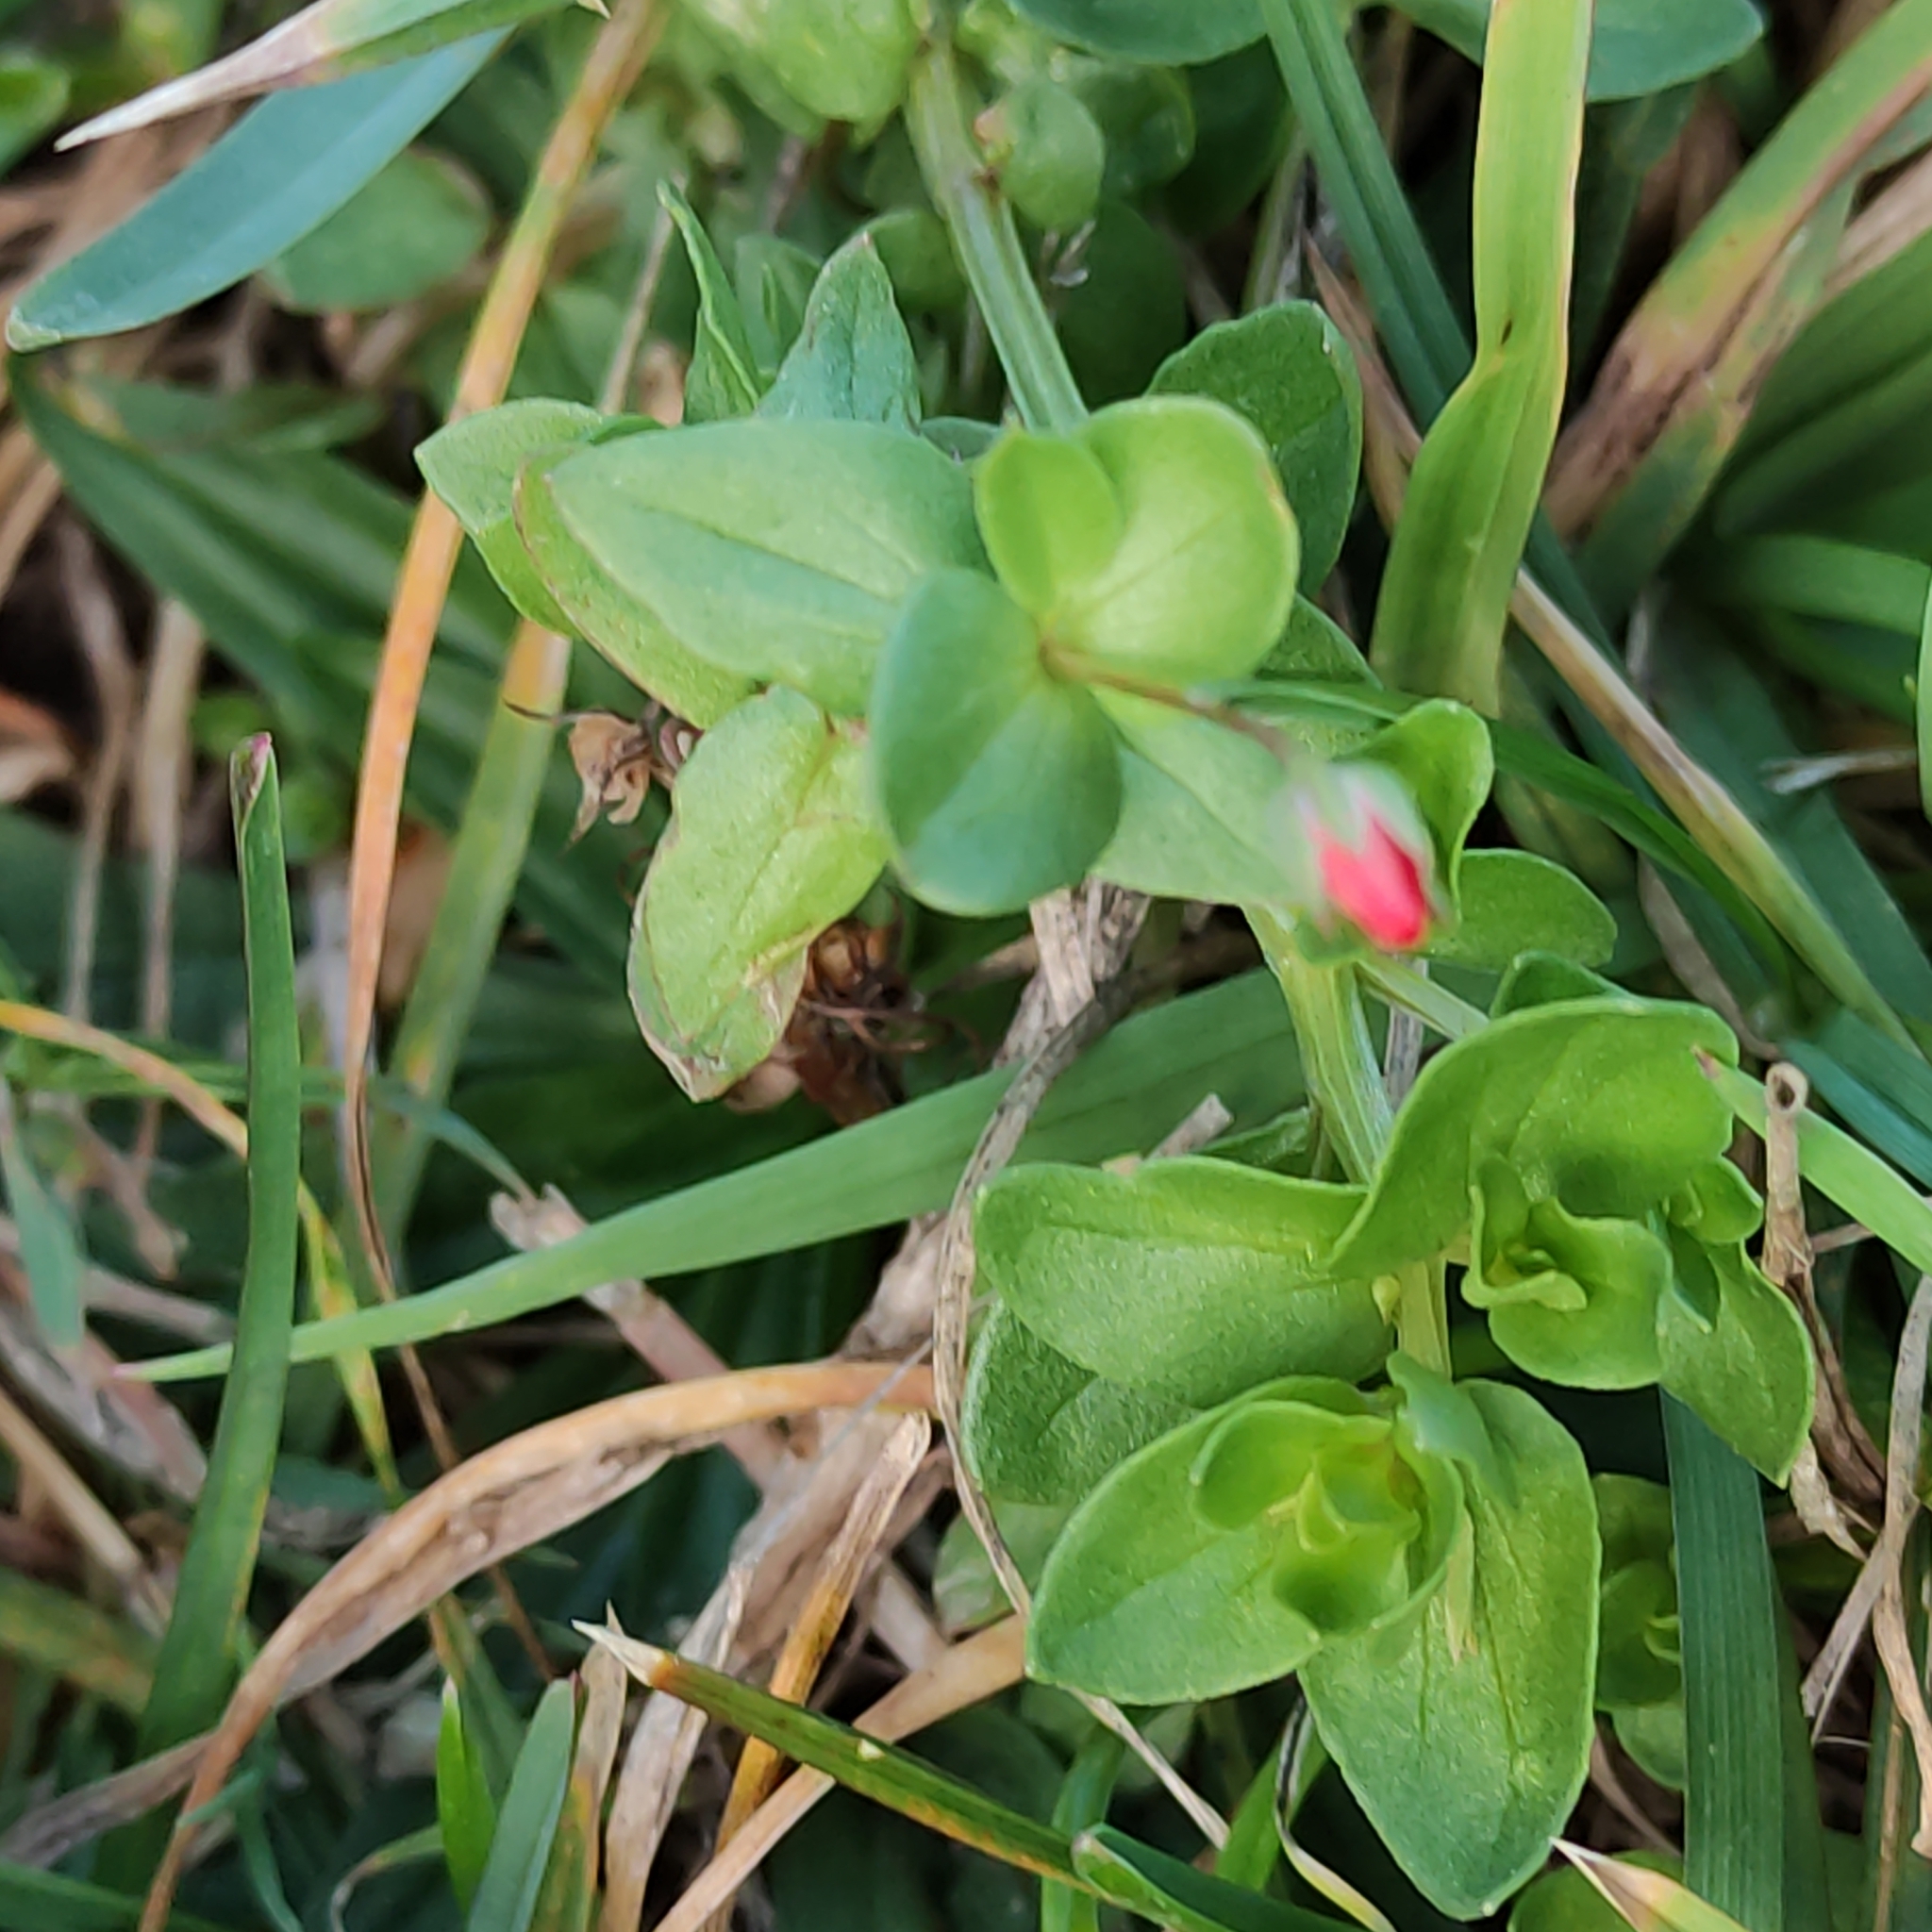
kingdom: Plantae
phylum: Tracheophyta
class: Magnoliopsida
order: Ericales
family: Primulaceae
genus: Lysimachia
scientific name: Lysimachia arvensis
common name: Scarlet pimpernel
